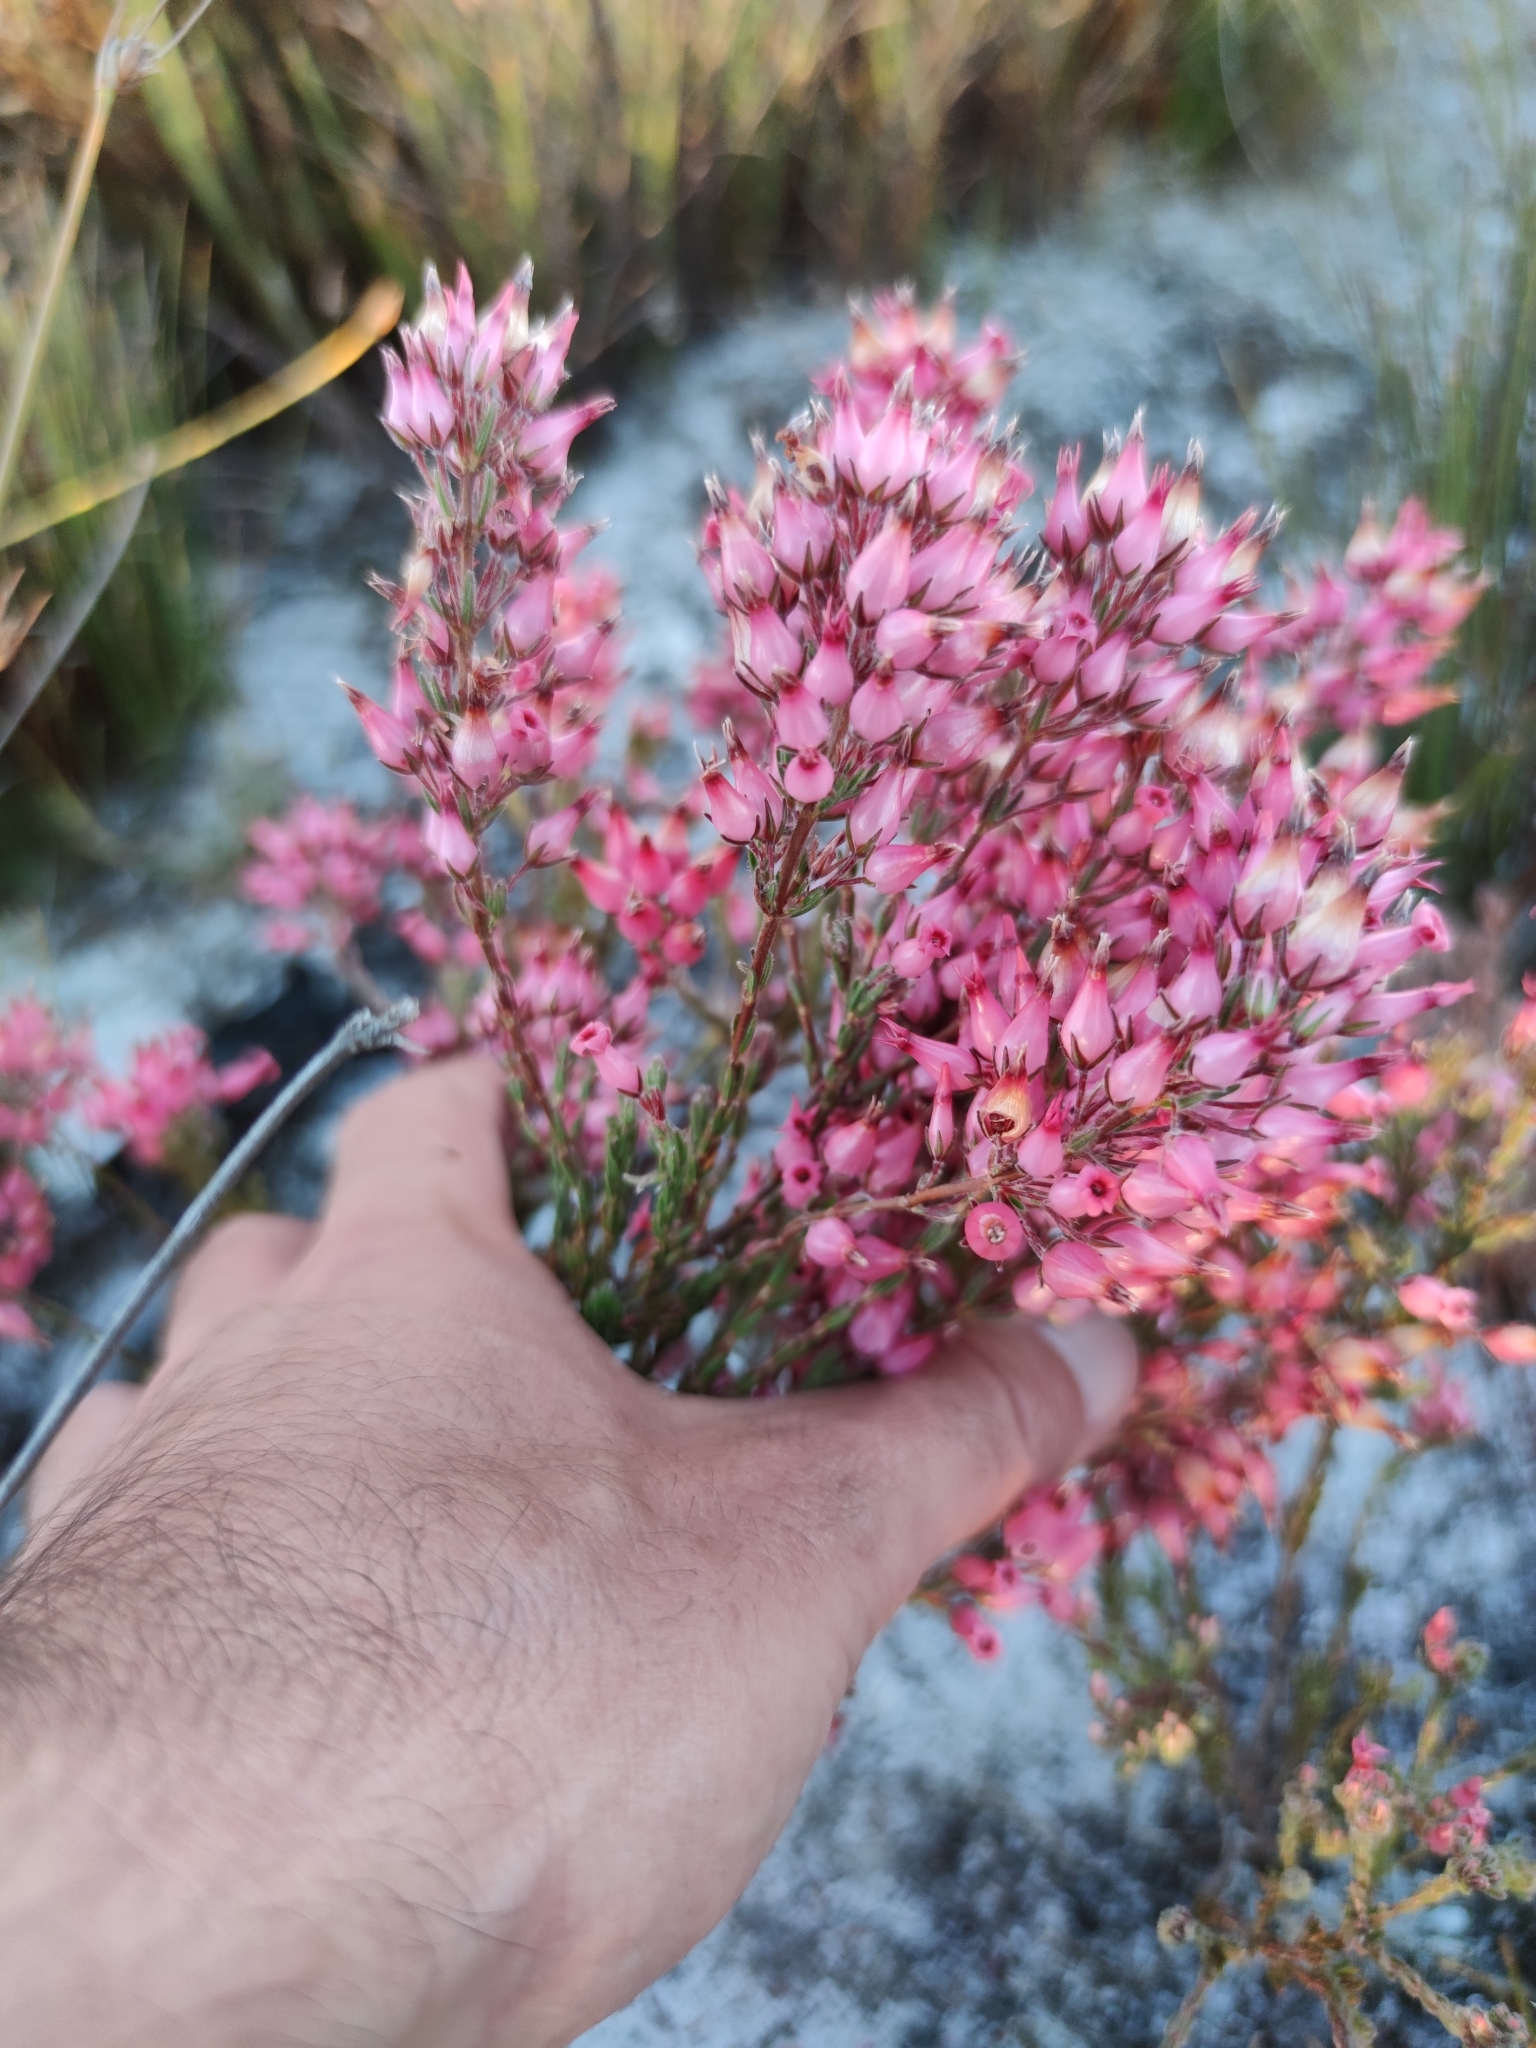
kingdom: Plantae
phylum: Tracheophyta
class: Magnoliopsida
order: Ericales
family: Ericaceae
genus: Erica
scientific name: Erica
